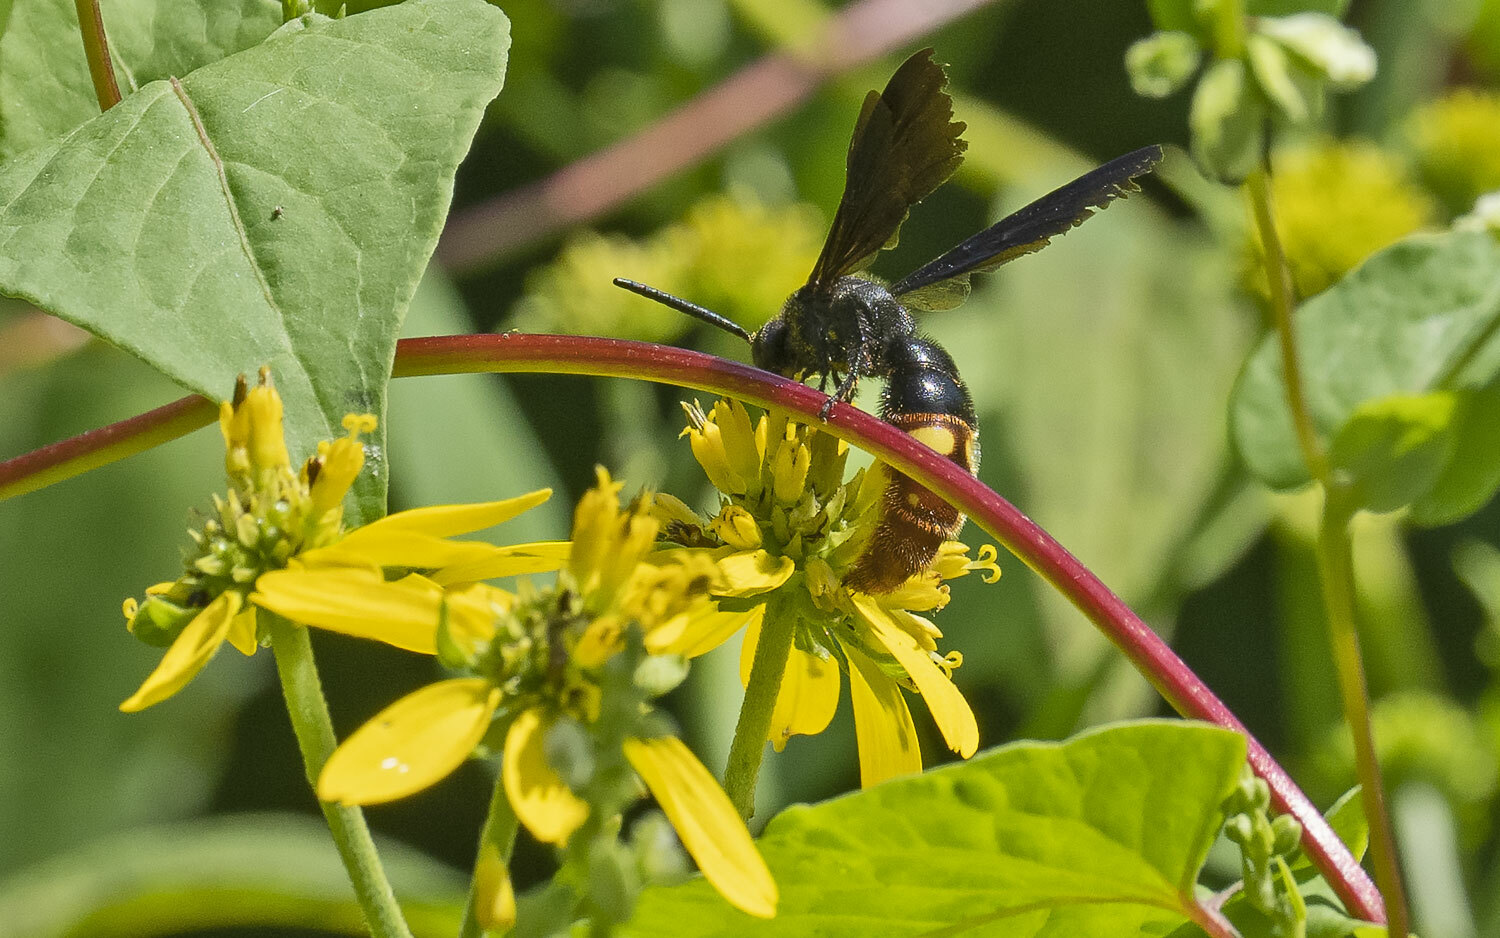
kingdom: Animalia
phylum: Arthropoda
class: Insecta
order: Hymenoptera
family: Scoliidae
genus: Scolia
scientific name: Scolia dubia
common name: Blue-winged scoliid wasp
